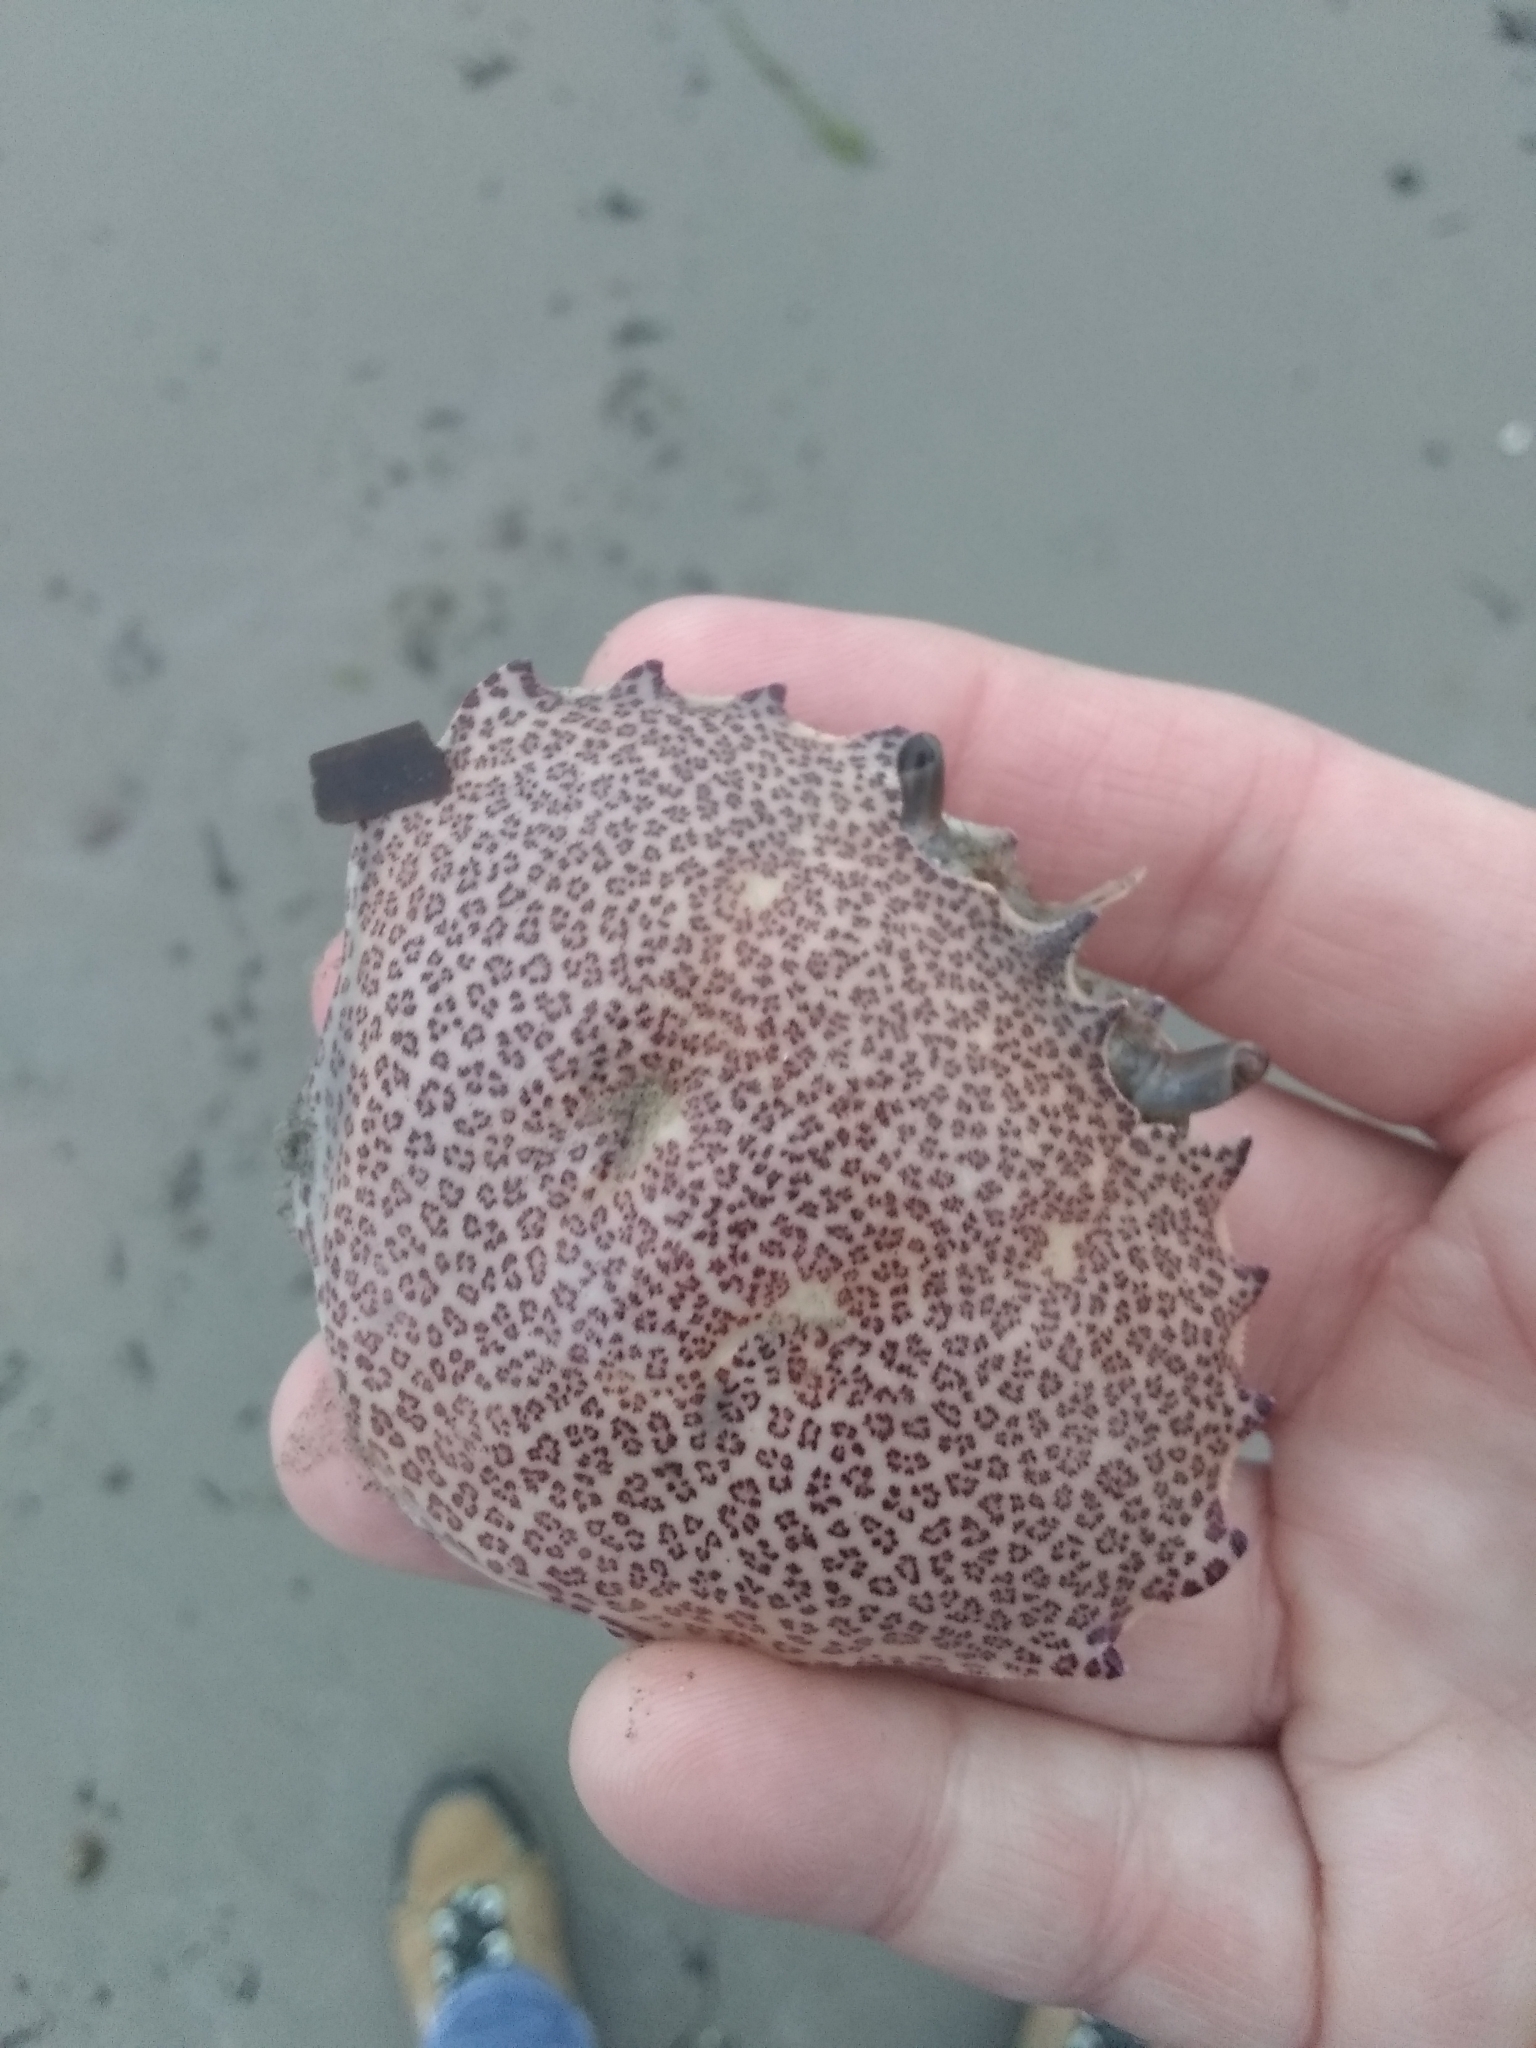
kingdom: Animalia
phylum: Arthropoda
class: Malacostraca
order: Decapoda
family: Ovalipidae
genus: Ovalipes
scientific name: Ovalipes ocellatus
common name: Lady crab
